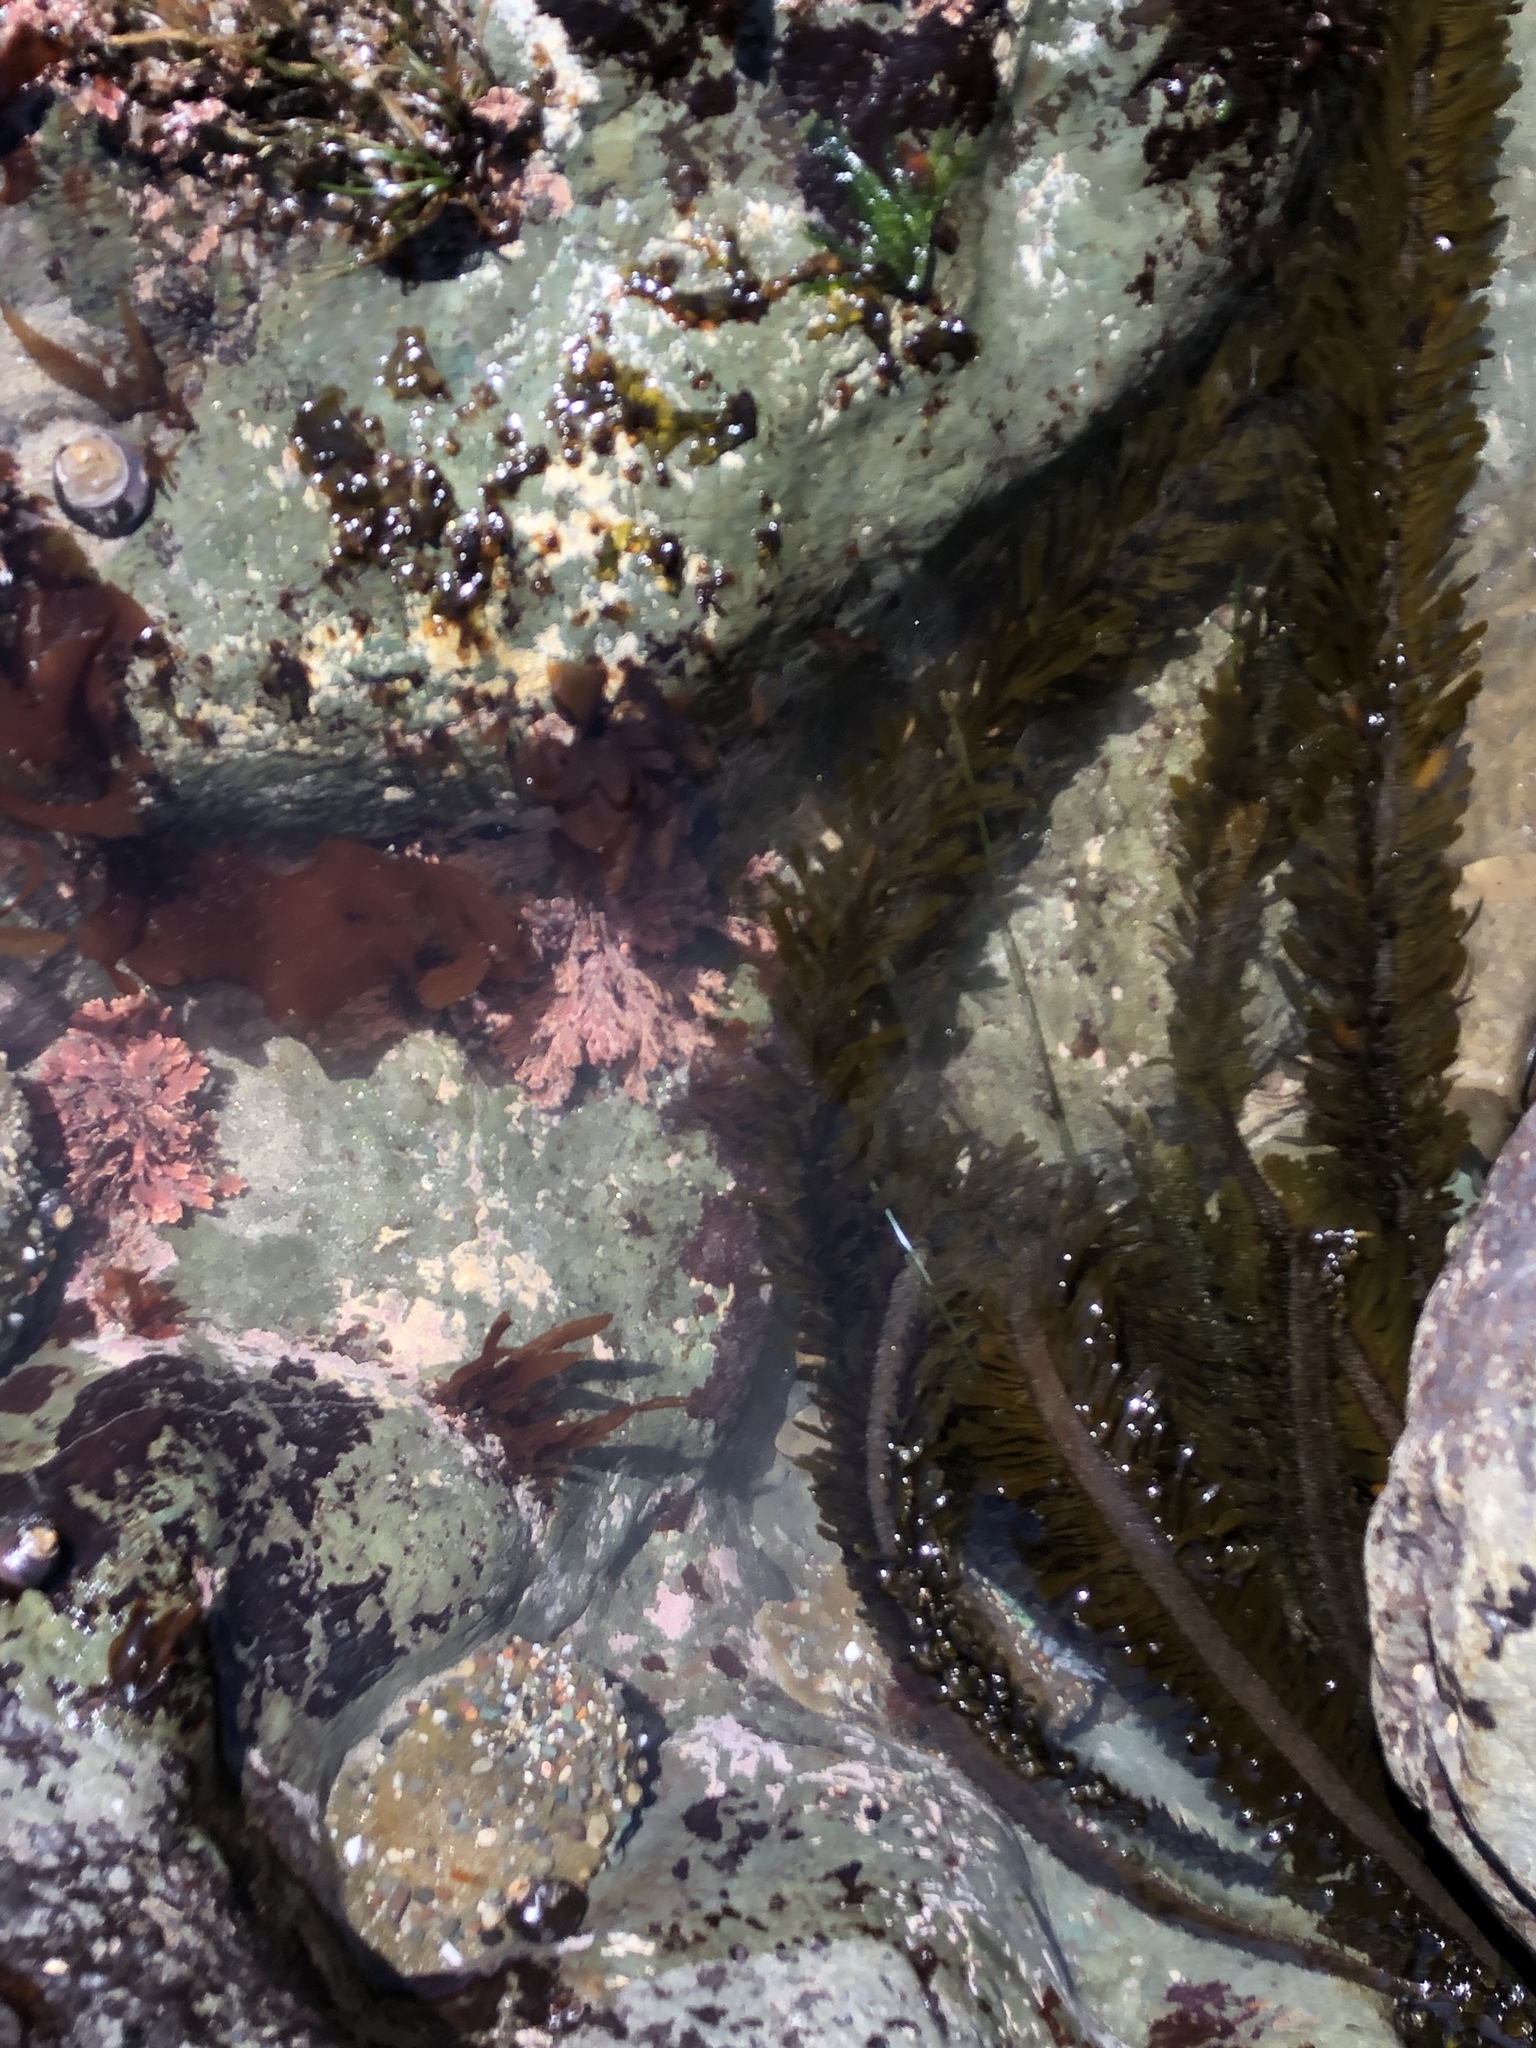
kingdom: Chromista
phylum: Ochrophyta
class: Phaeophyceae
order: Laminariales
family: Lessoniaceae
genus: Egregia
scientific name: Egregia menziesii
